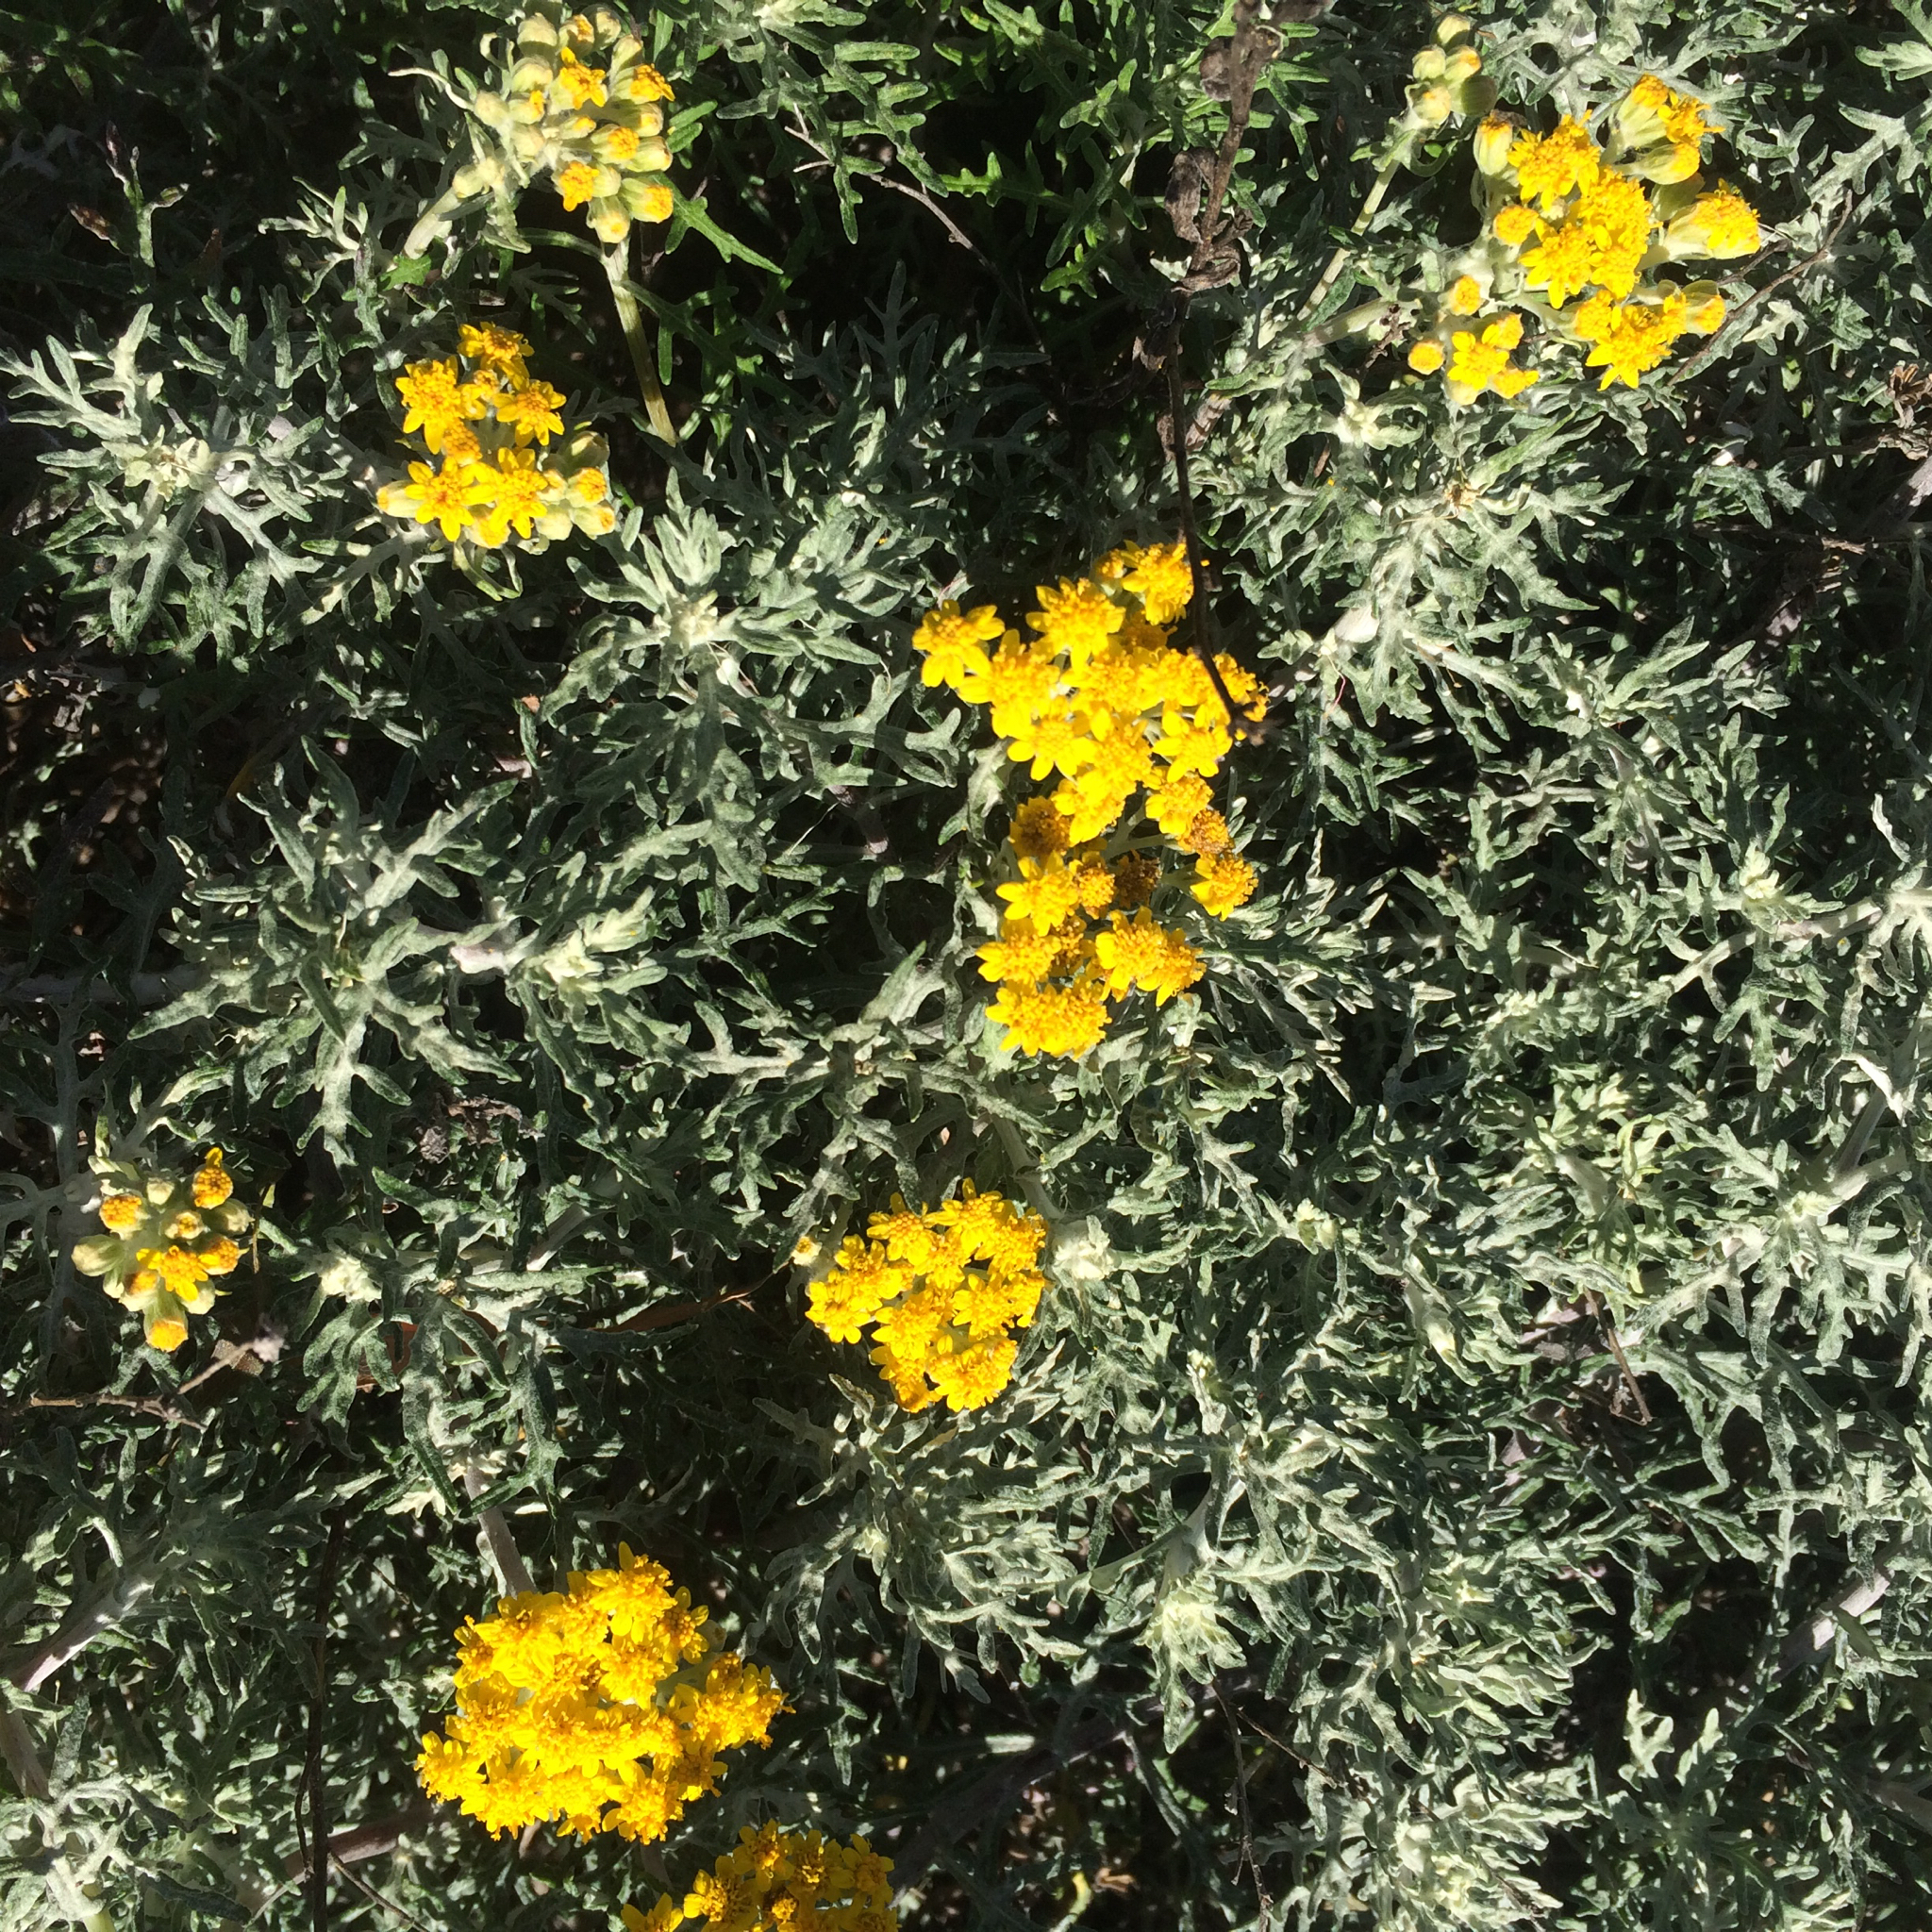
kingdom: Plantae
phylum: Tracheophyta
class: Magnoliopsida
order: Asterales
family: Asteraceae
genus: Eriophyllum
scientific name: Eriophyllum staechadifolium
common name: Lizardtail
